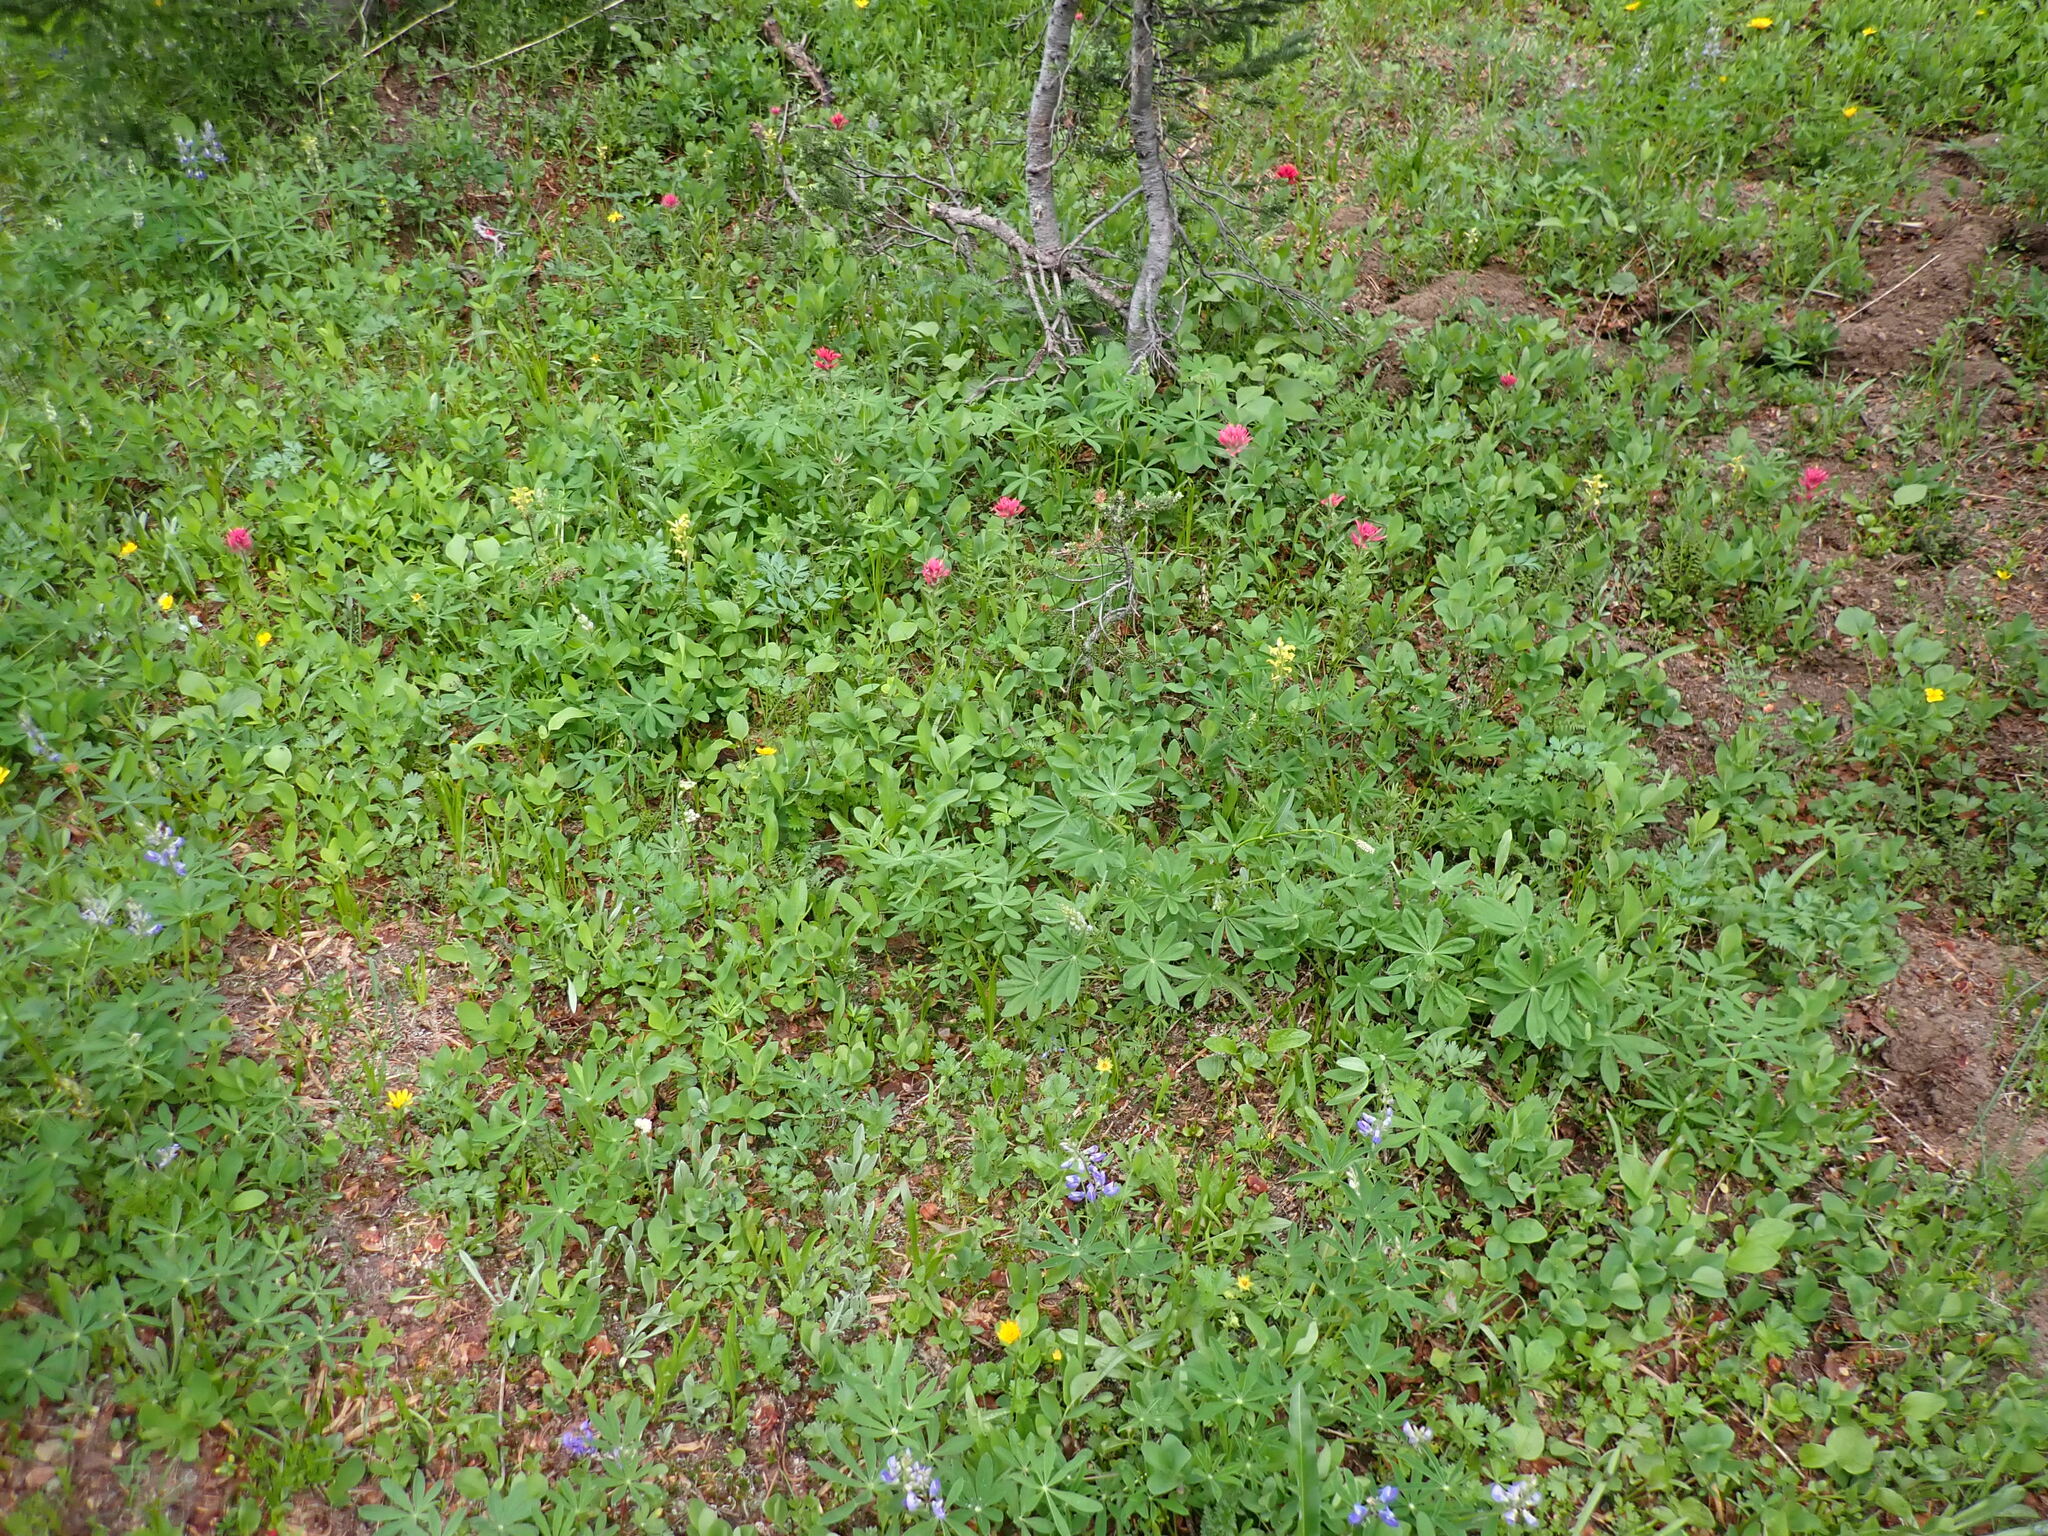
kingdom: Plantae
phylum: Tracheophyta
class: Magnoliopsida
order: Lamiales
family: Orobanchaceae
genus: Pedicularis
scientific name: Pedicularis rainierensis
